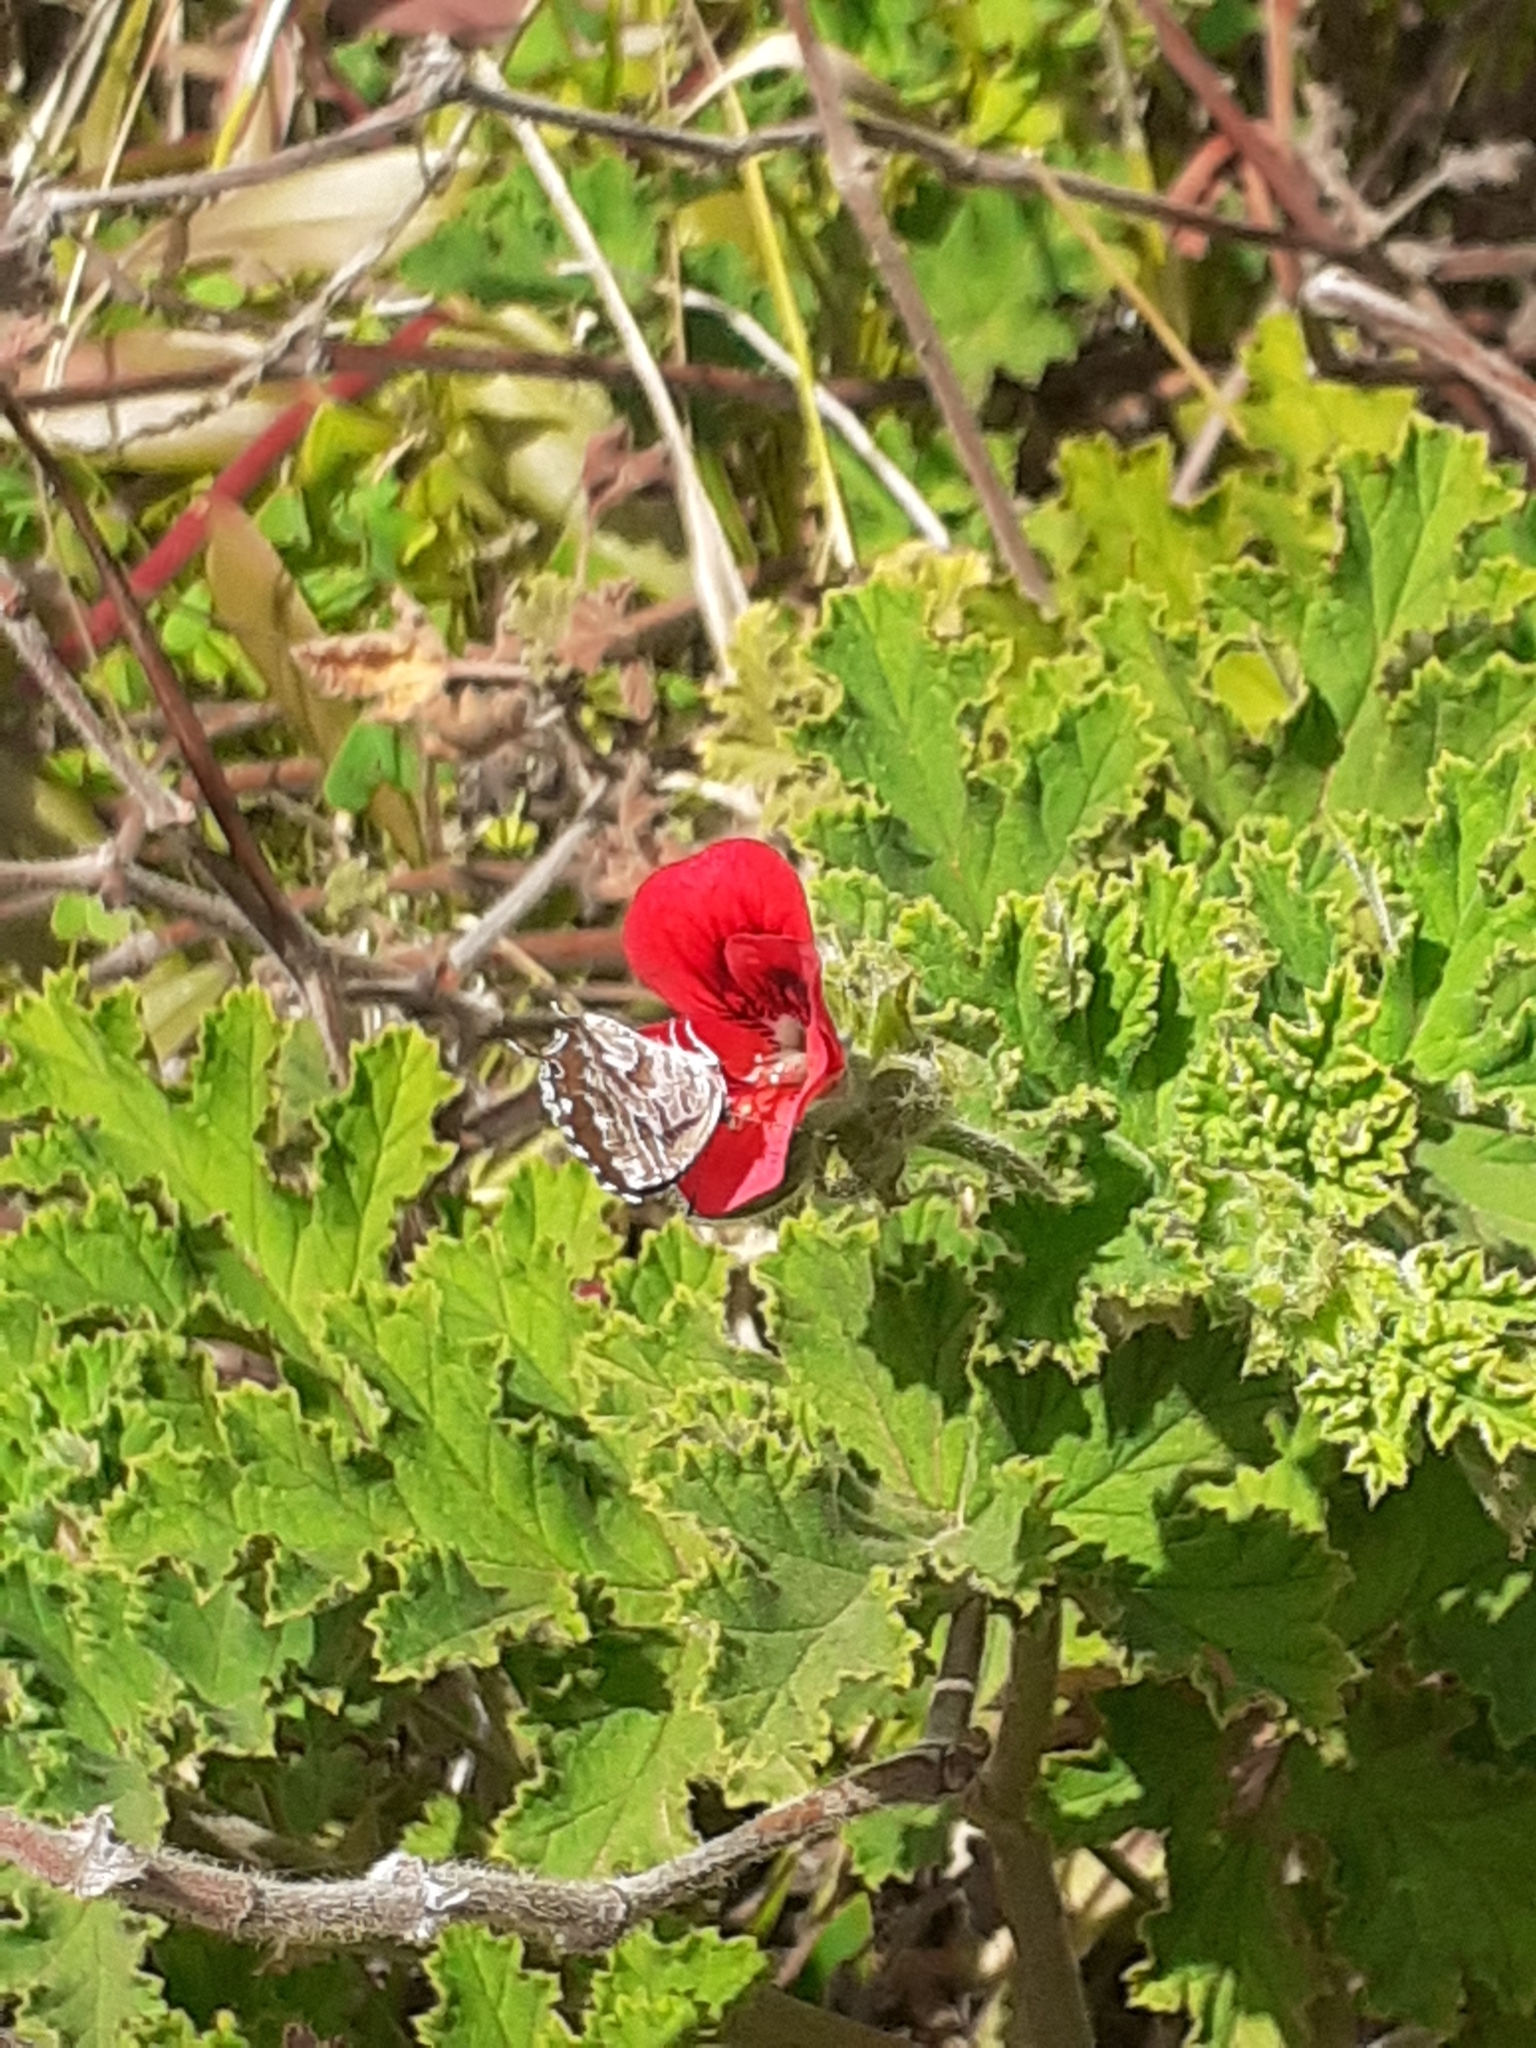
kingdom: Animalia
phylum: Arthropoda
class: Insecta
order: Lepidoptera
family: Lycaenidae
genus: Cacyreus
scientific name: Cacyreus marshalli
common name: Geranium bronze
